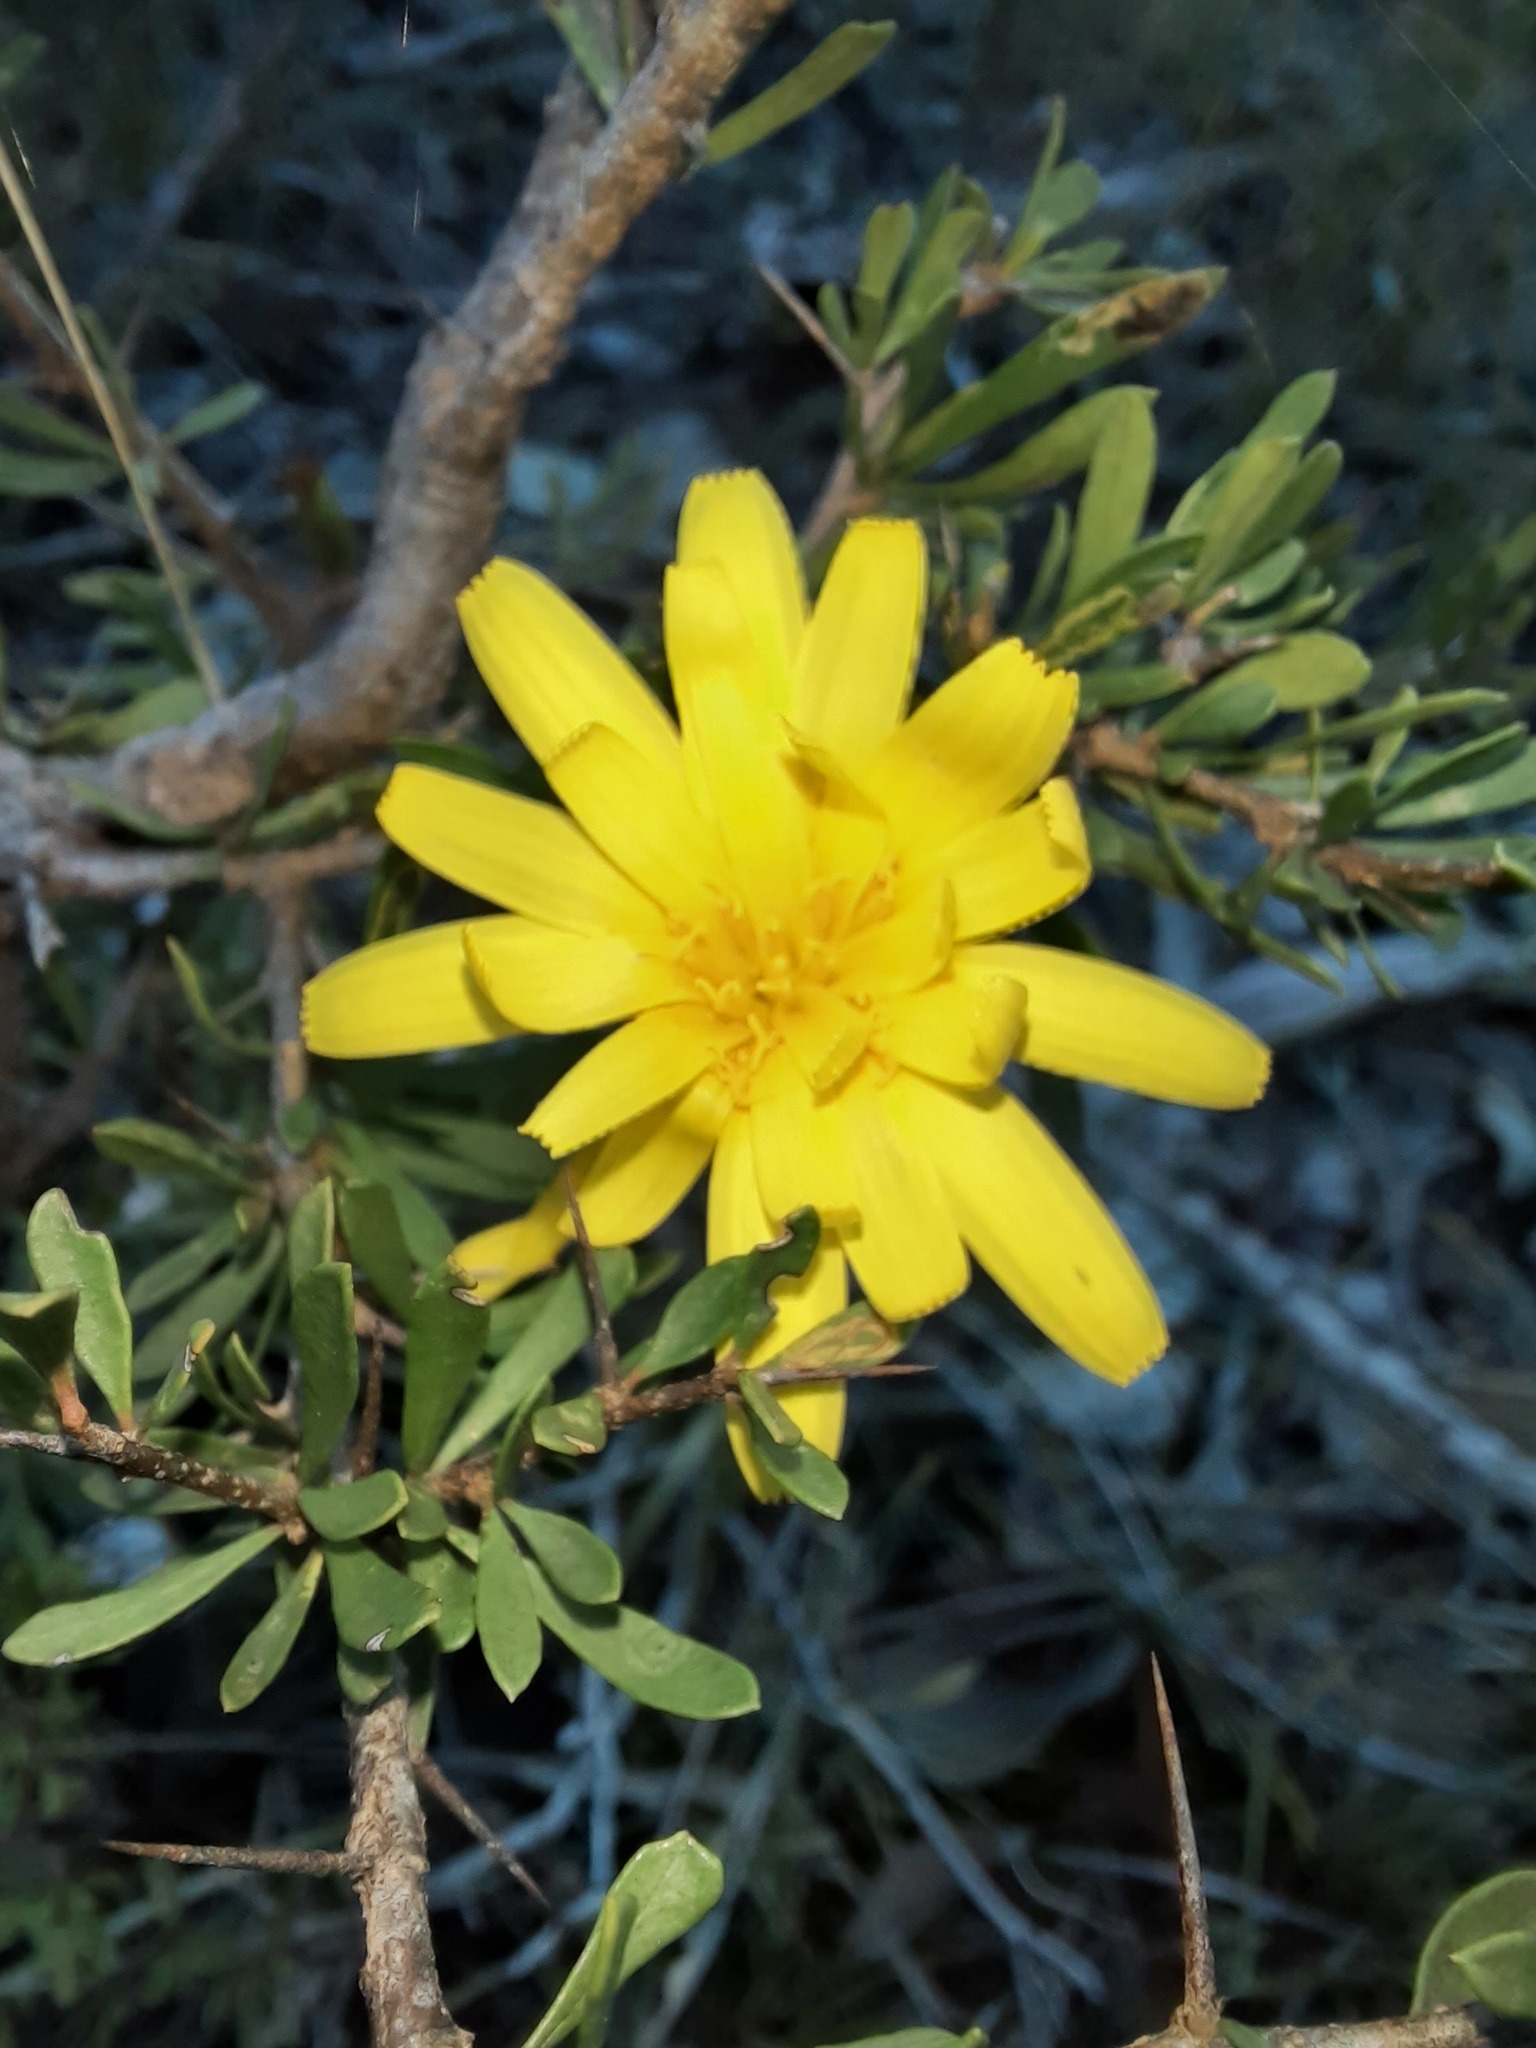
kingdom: Plantae
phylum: Tracheophyta
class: Magnoliopsida
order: Asterales
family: Asteraceae
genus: Microseris
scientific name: Microseris lanceolata
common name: Yam daisy
